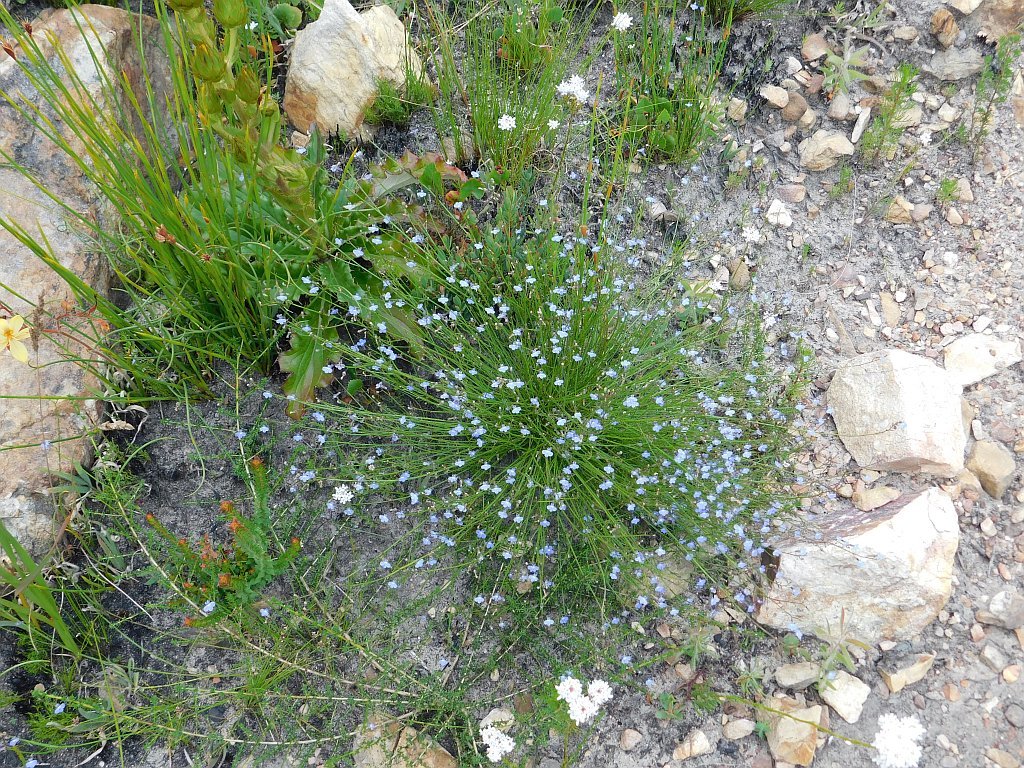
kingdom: Plantae
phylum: Tracheophyta
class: Magnoliopsida
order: Asterales
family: Campanulaceae
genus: Lobelia
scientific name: Lobelia linearis
